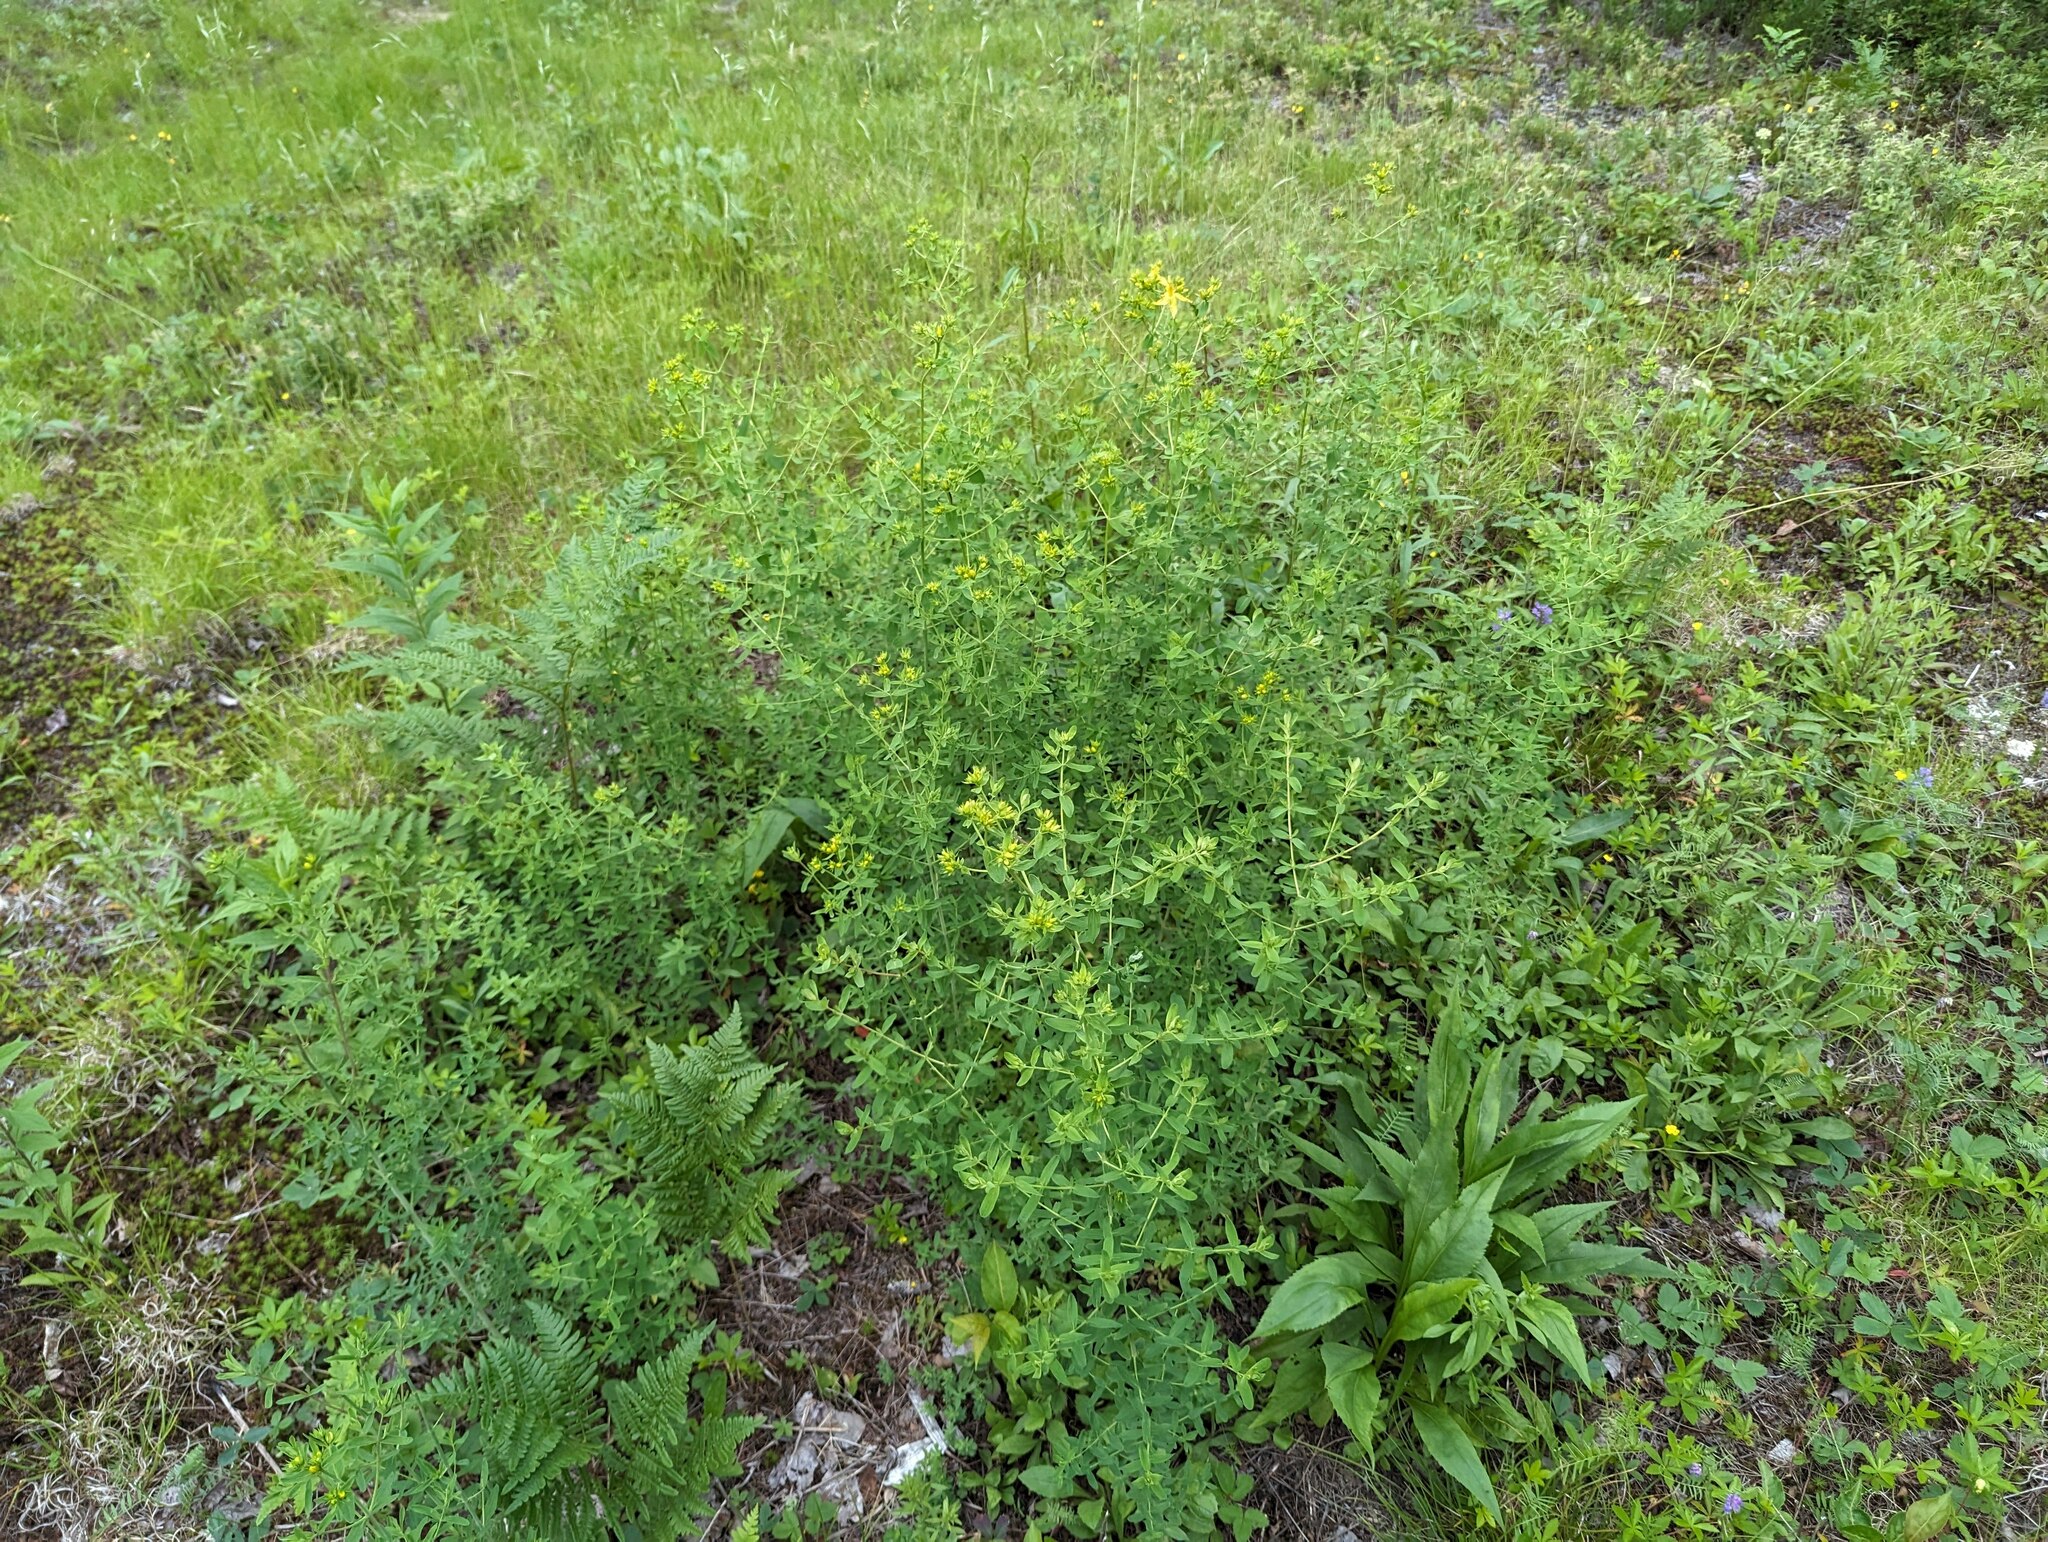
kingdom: Plantae
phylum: Tracheophyta
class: Magnoliopsida
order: Malpighiales
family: Hypericaceae
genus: Hypericum
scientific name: Hypericum perforatum
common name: Common st. johnswort
